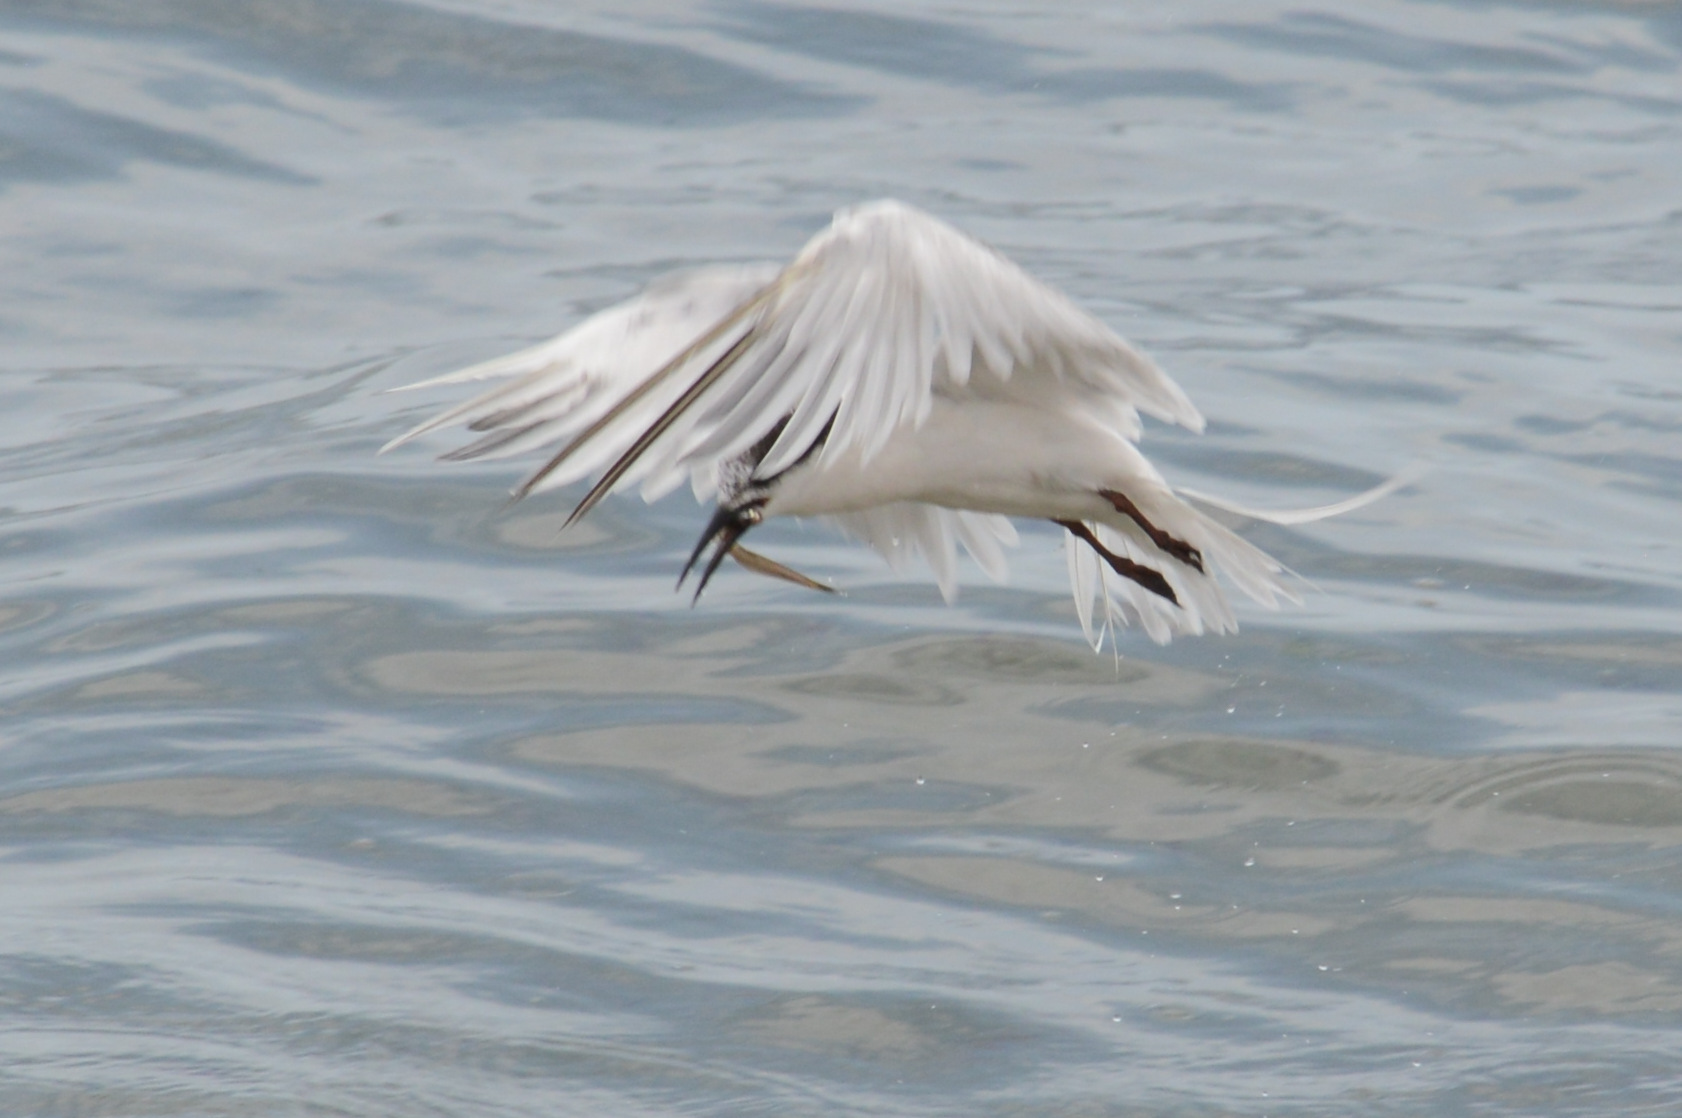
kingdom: Animalia
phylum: Chordata
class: Aves
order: Charadriiformes
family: Laridae
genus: Sterna
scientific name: Sterna dougallii
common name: Roseate tern
